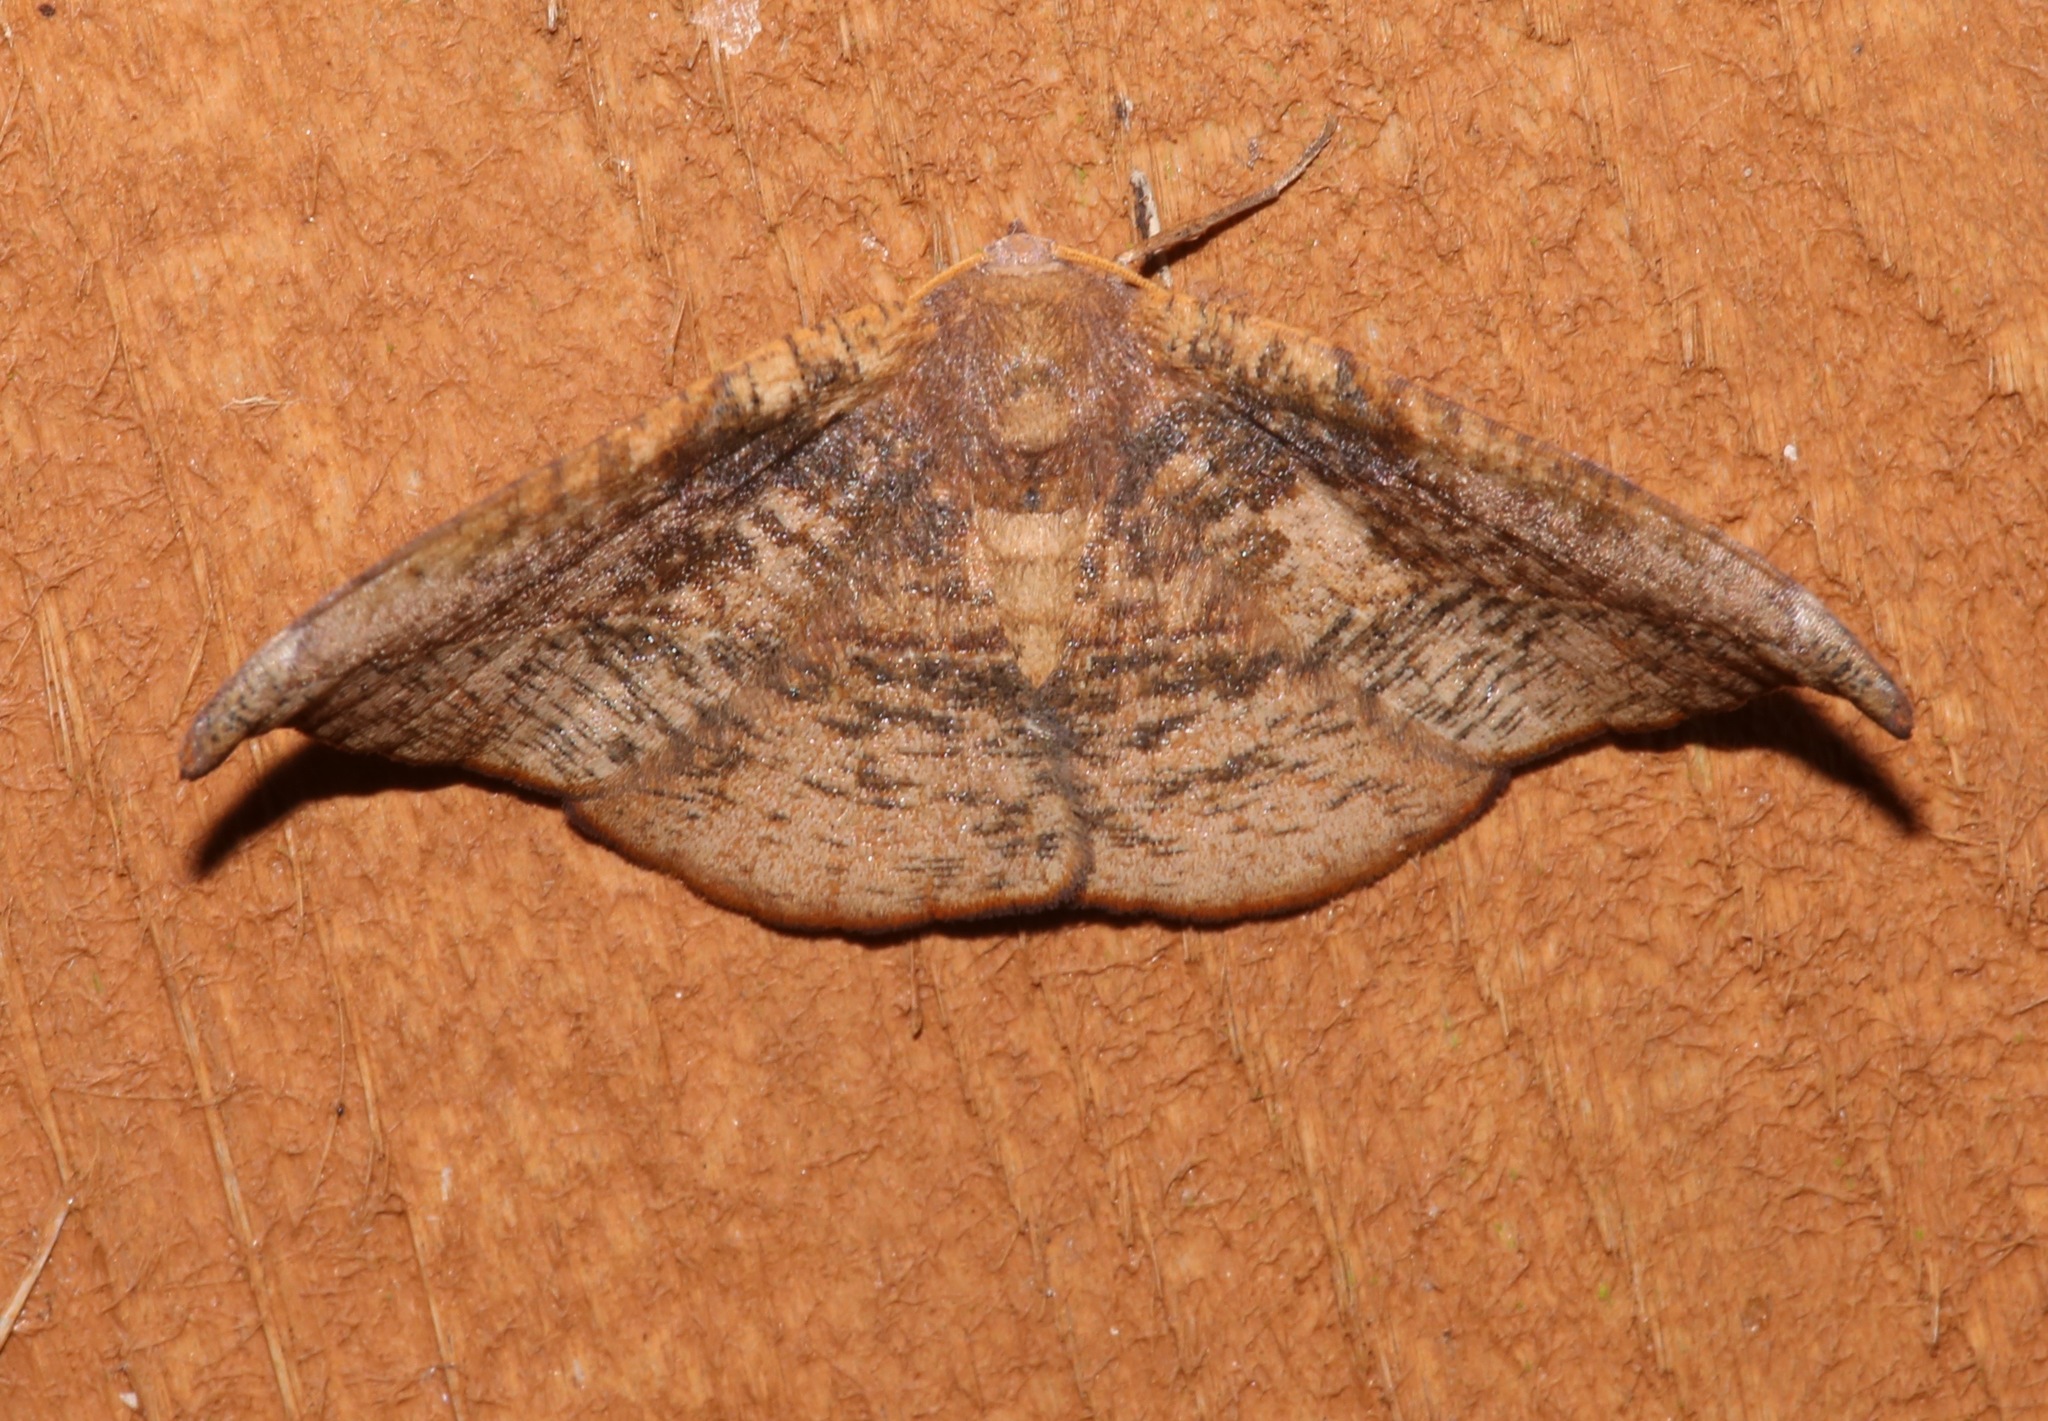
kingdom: Animalia
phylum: Arthropoda
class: Insecta
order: Lepidoptera
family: Geometridae
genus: Patalene
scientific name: Patalene olyzonaria
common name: Juniper geometer moth
